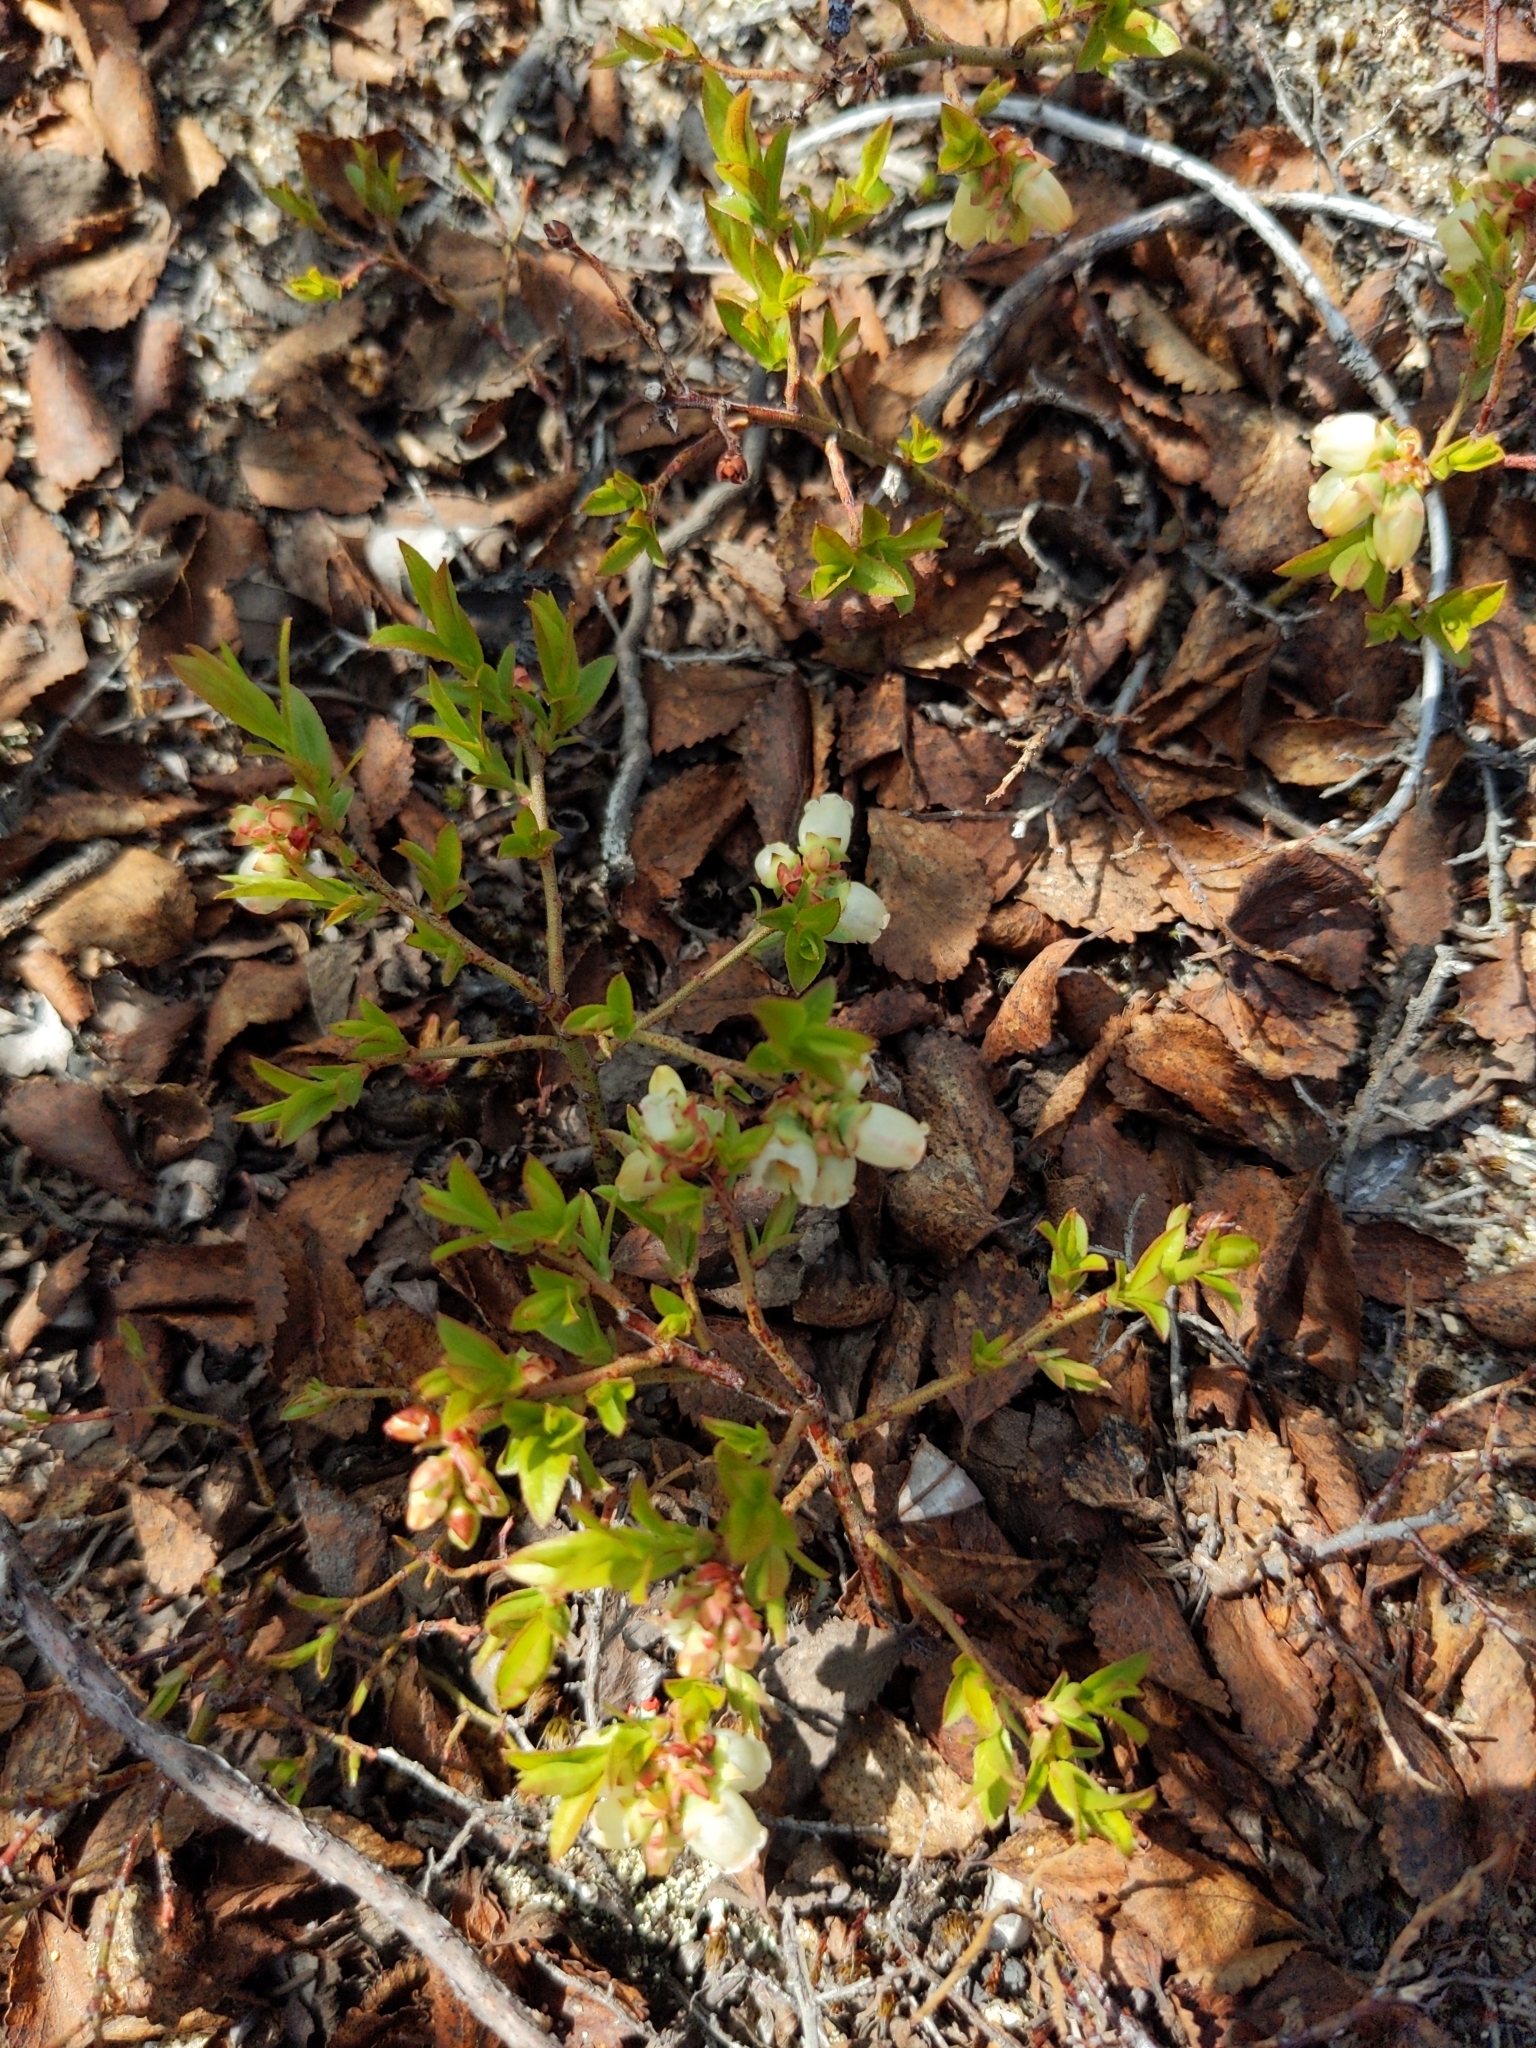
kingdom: Plantae
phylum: Tracheophyta
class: Magnoliopsida
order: Ericales
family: Ericaceae
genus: Vaccinium
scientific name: Vaccinium boreale
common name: Northern blueberry
